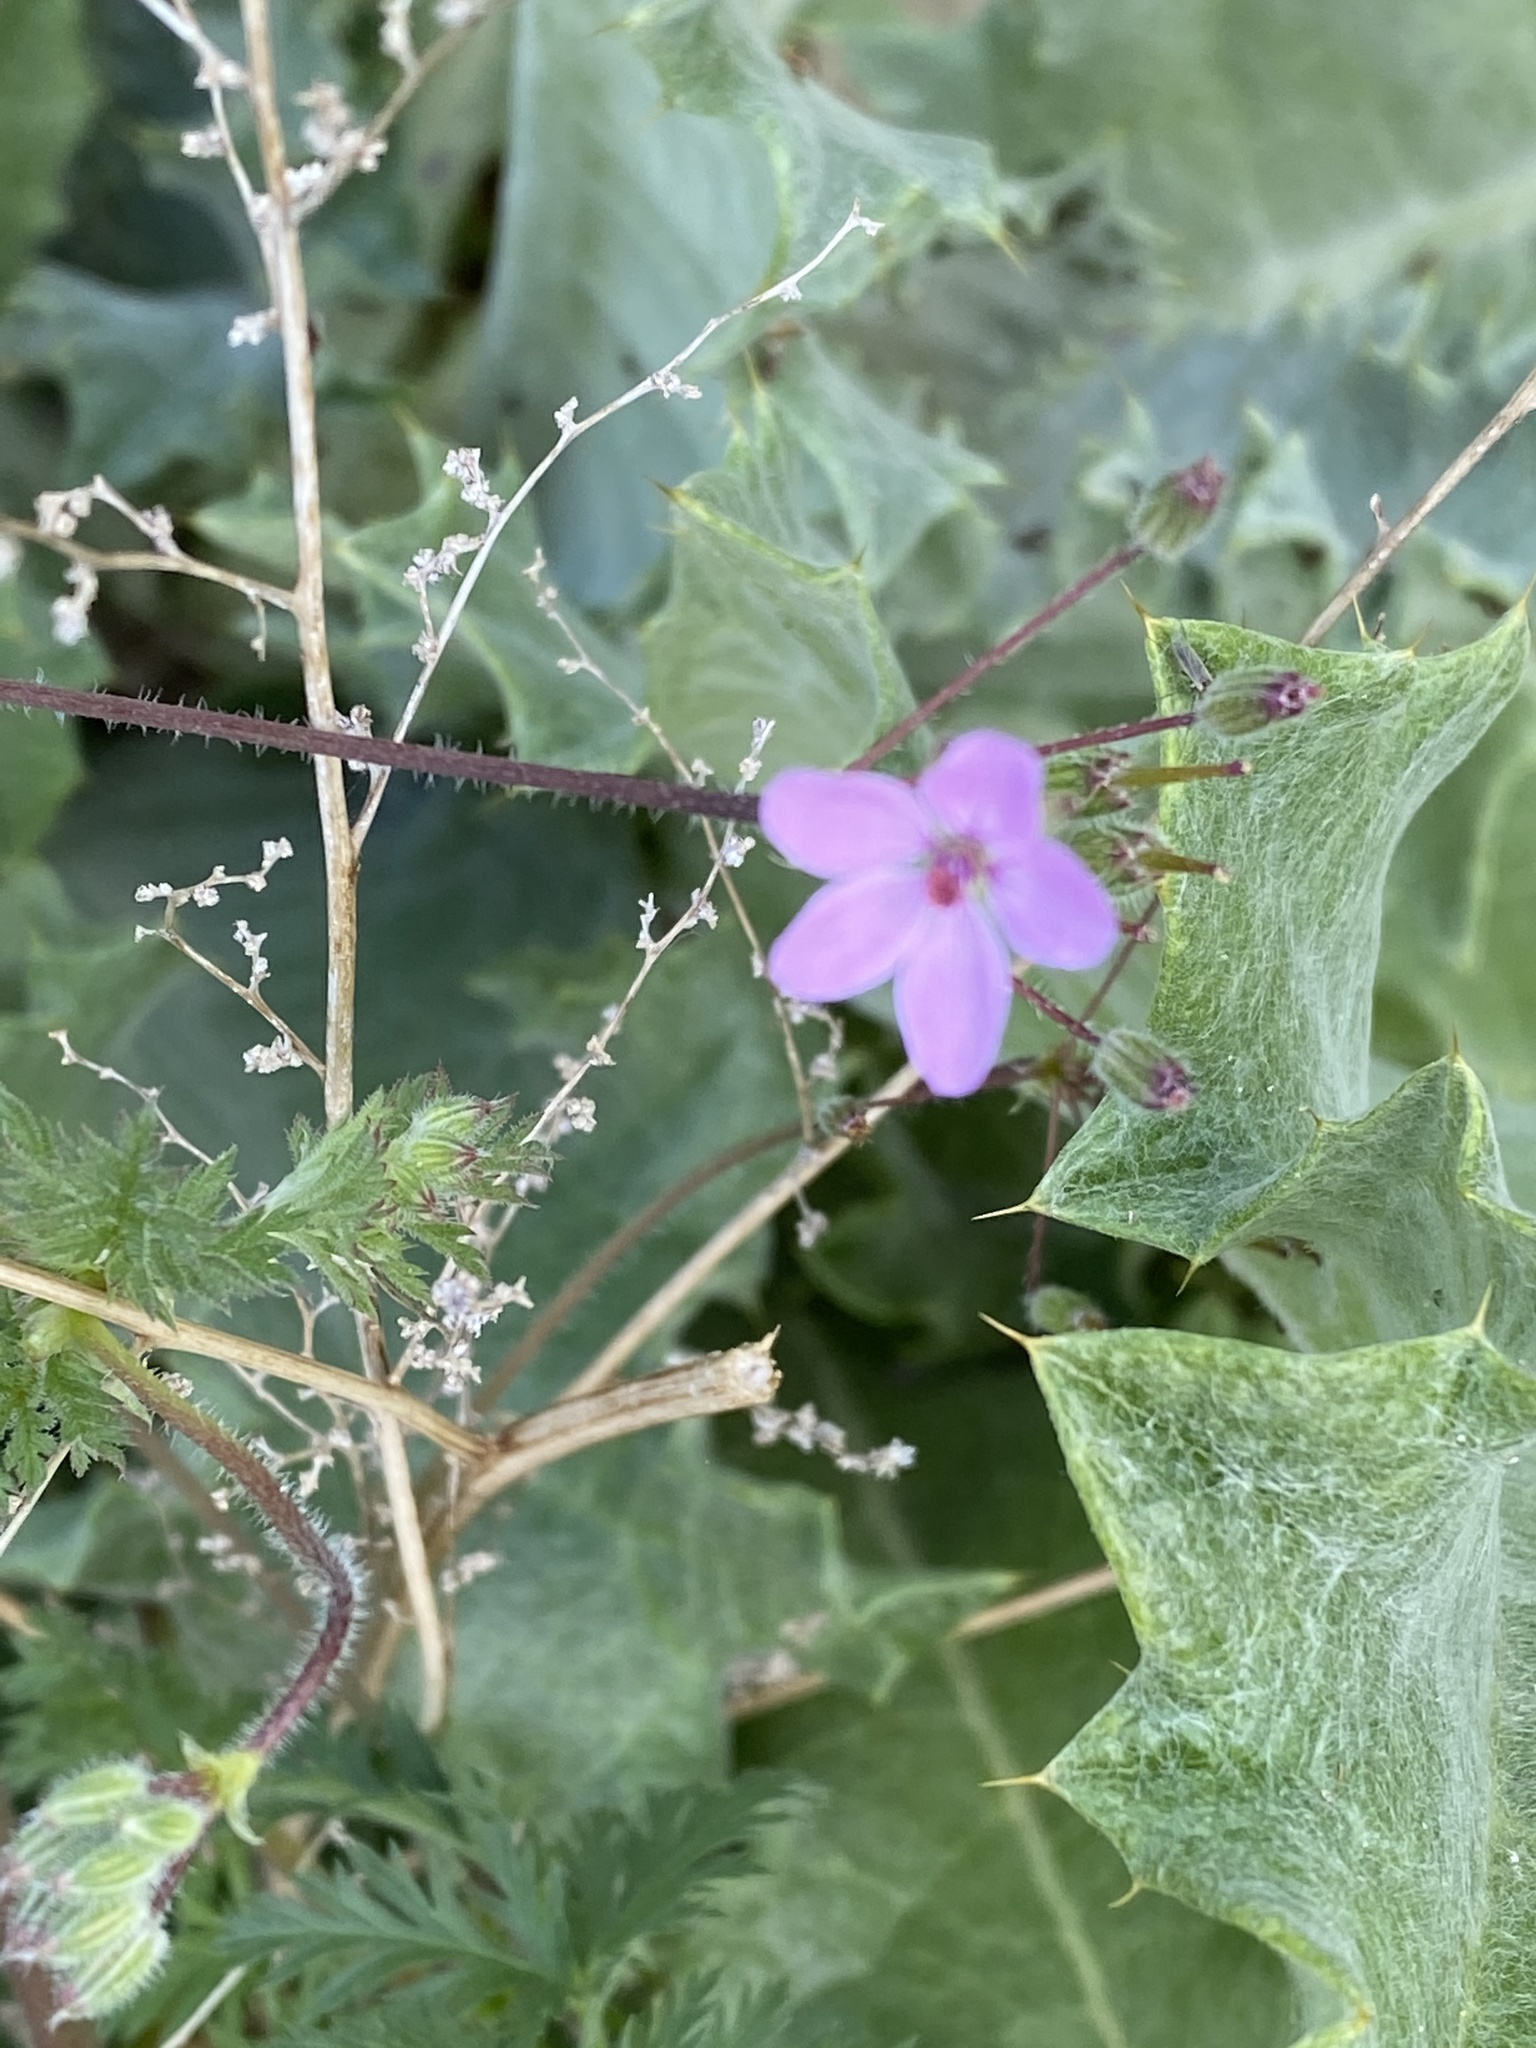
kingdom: Plantae
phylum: Tracheophyta
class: Magnoliopsida
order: Geraniales
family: Geraniaceae
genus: Erodium
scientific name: Erodium cicutarium
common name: Common stork's-bill
